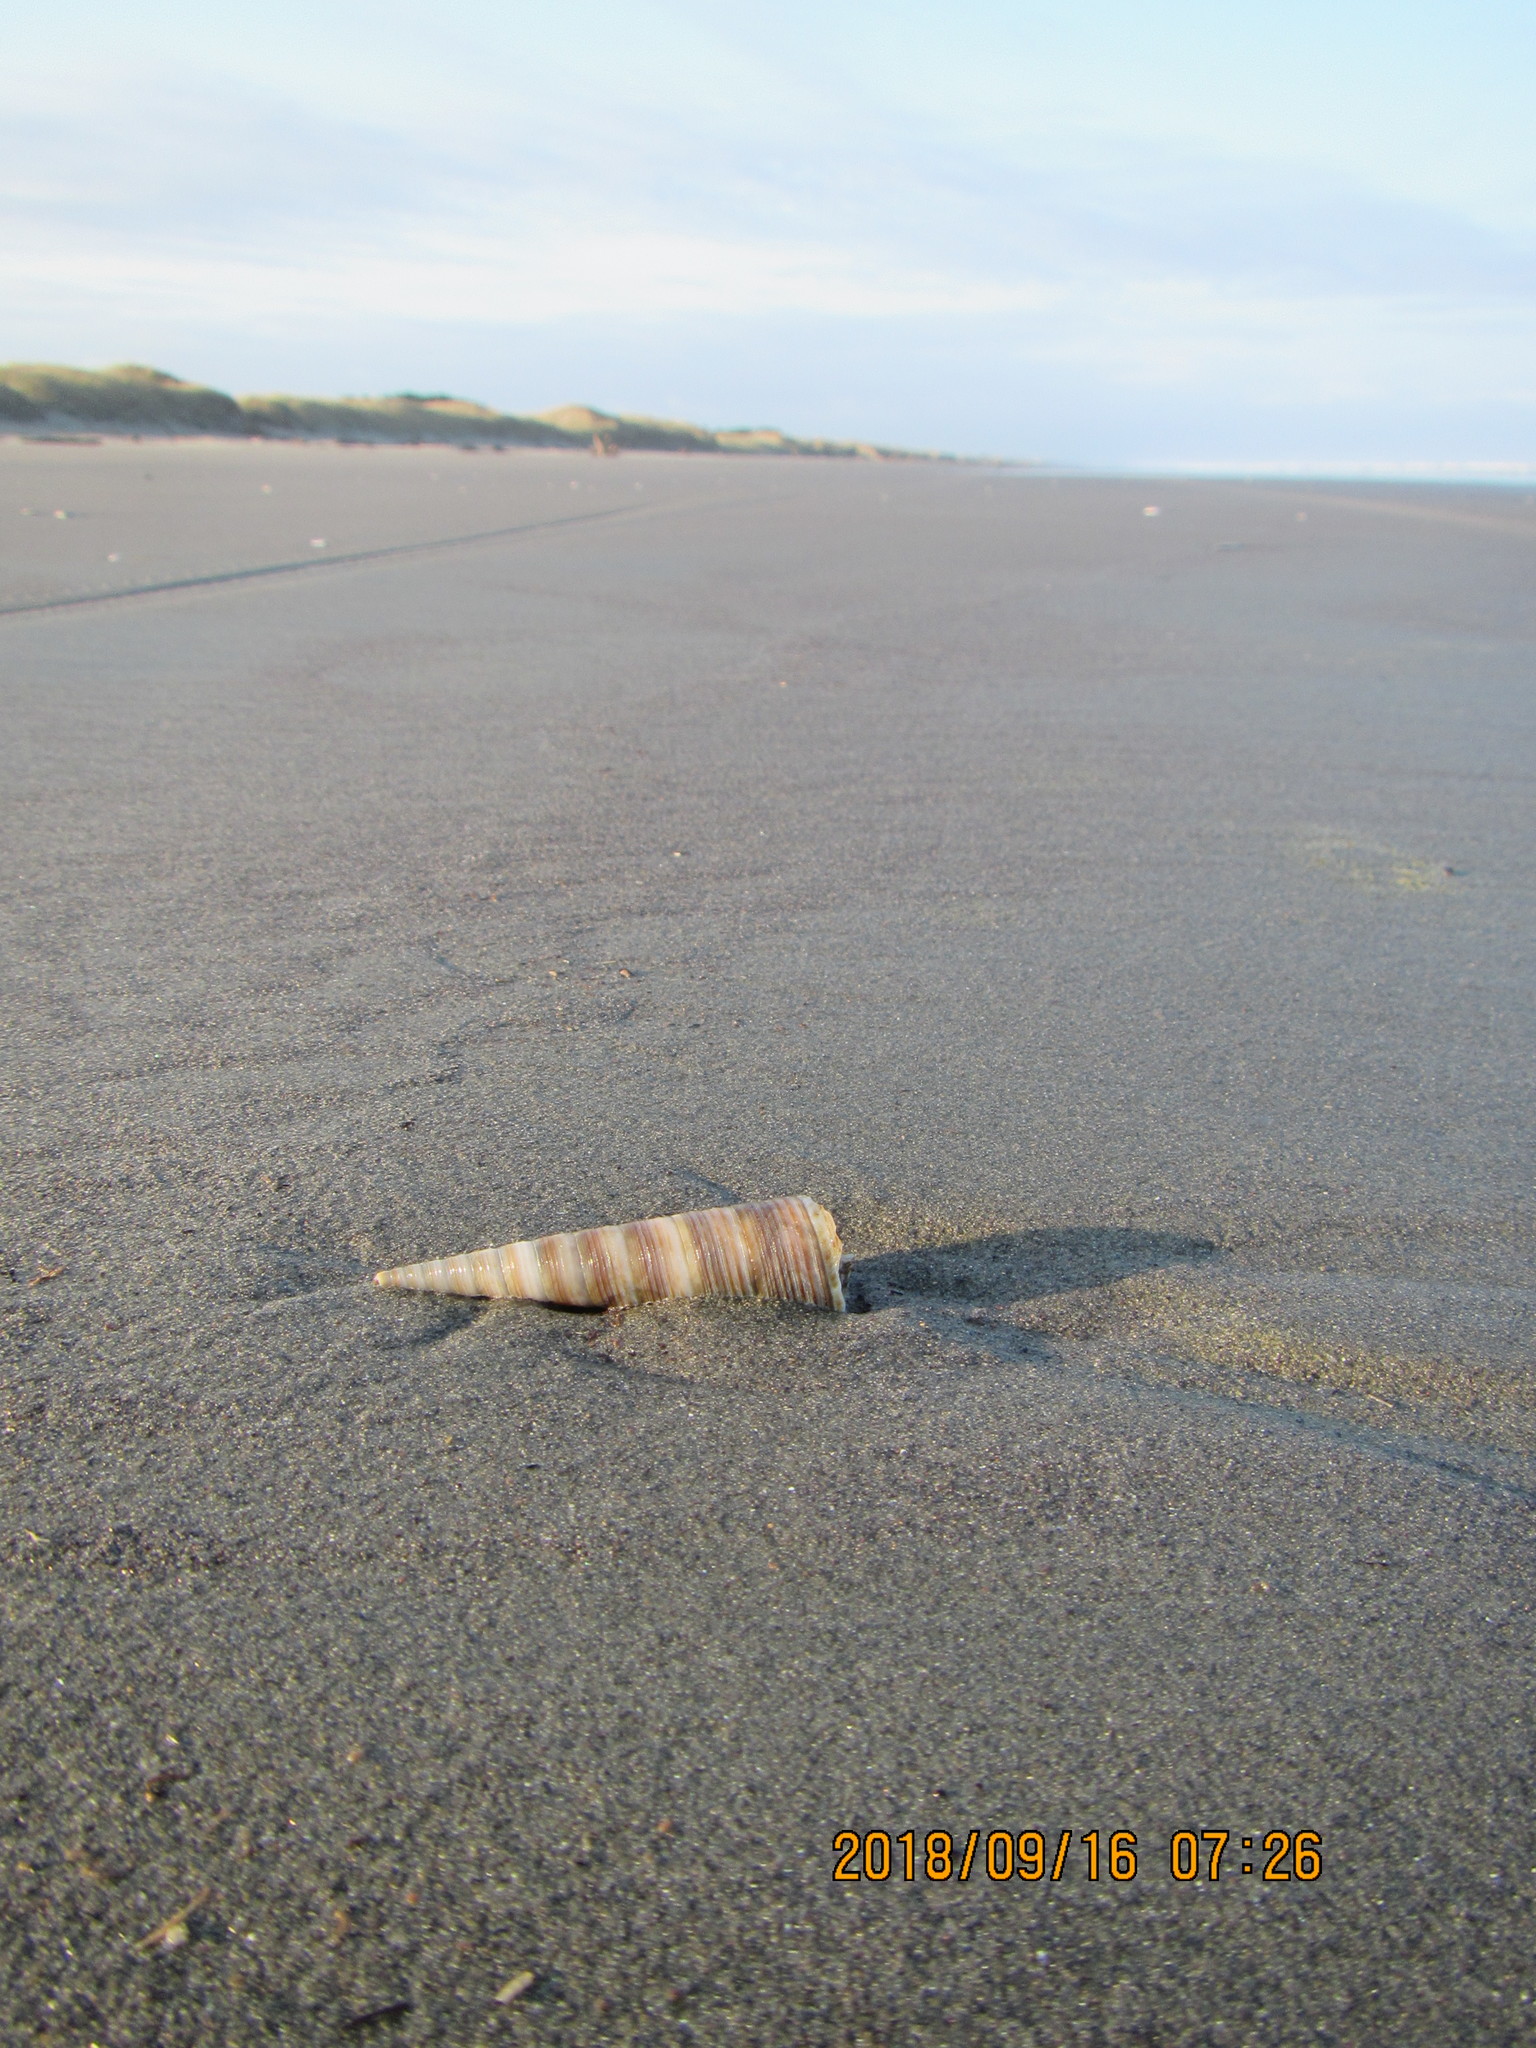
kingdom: Animalia
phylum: Mollusca
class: Gastropoda
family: Turritellidae
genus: Zeacolpus
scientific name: Zeacolpus vittatus
